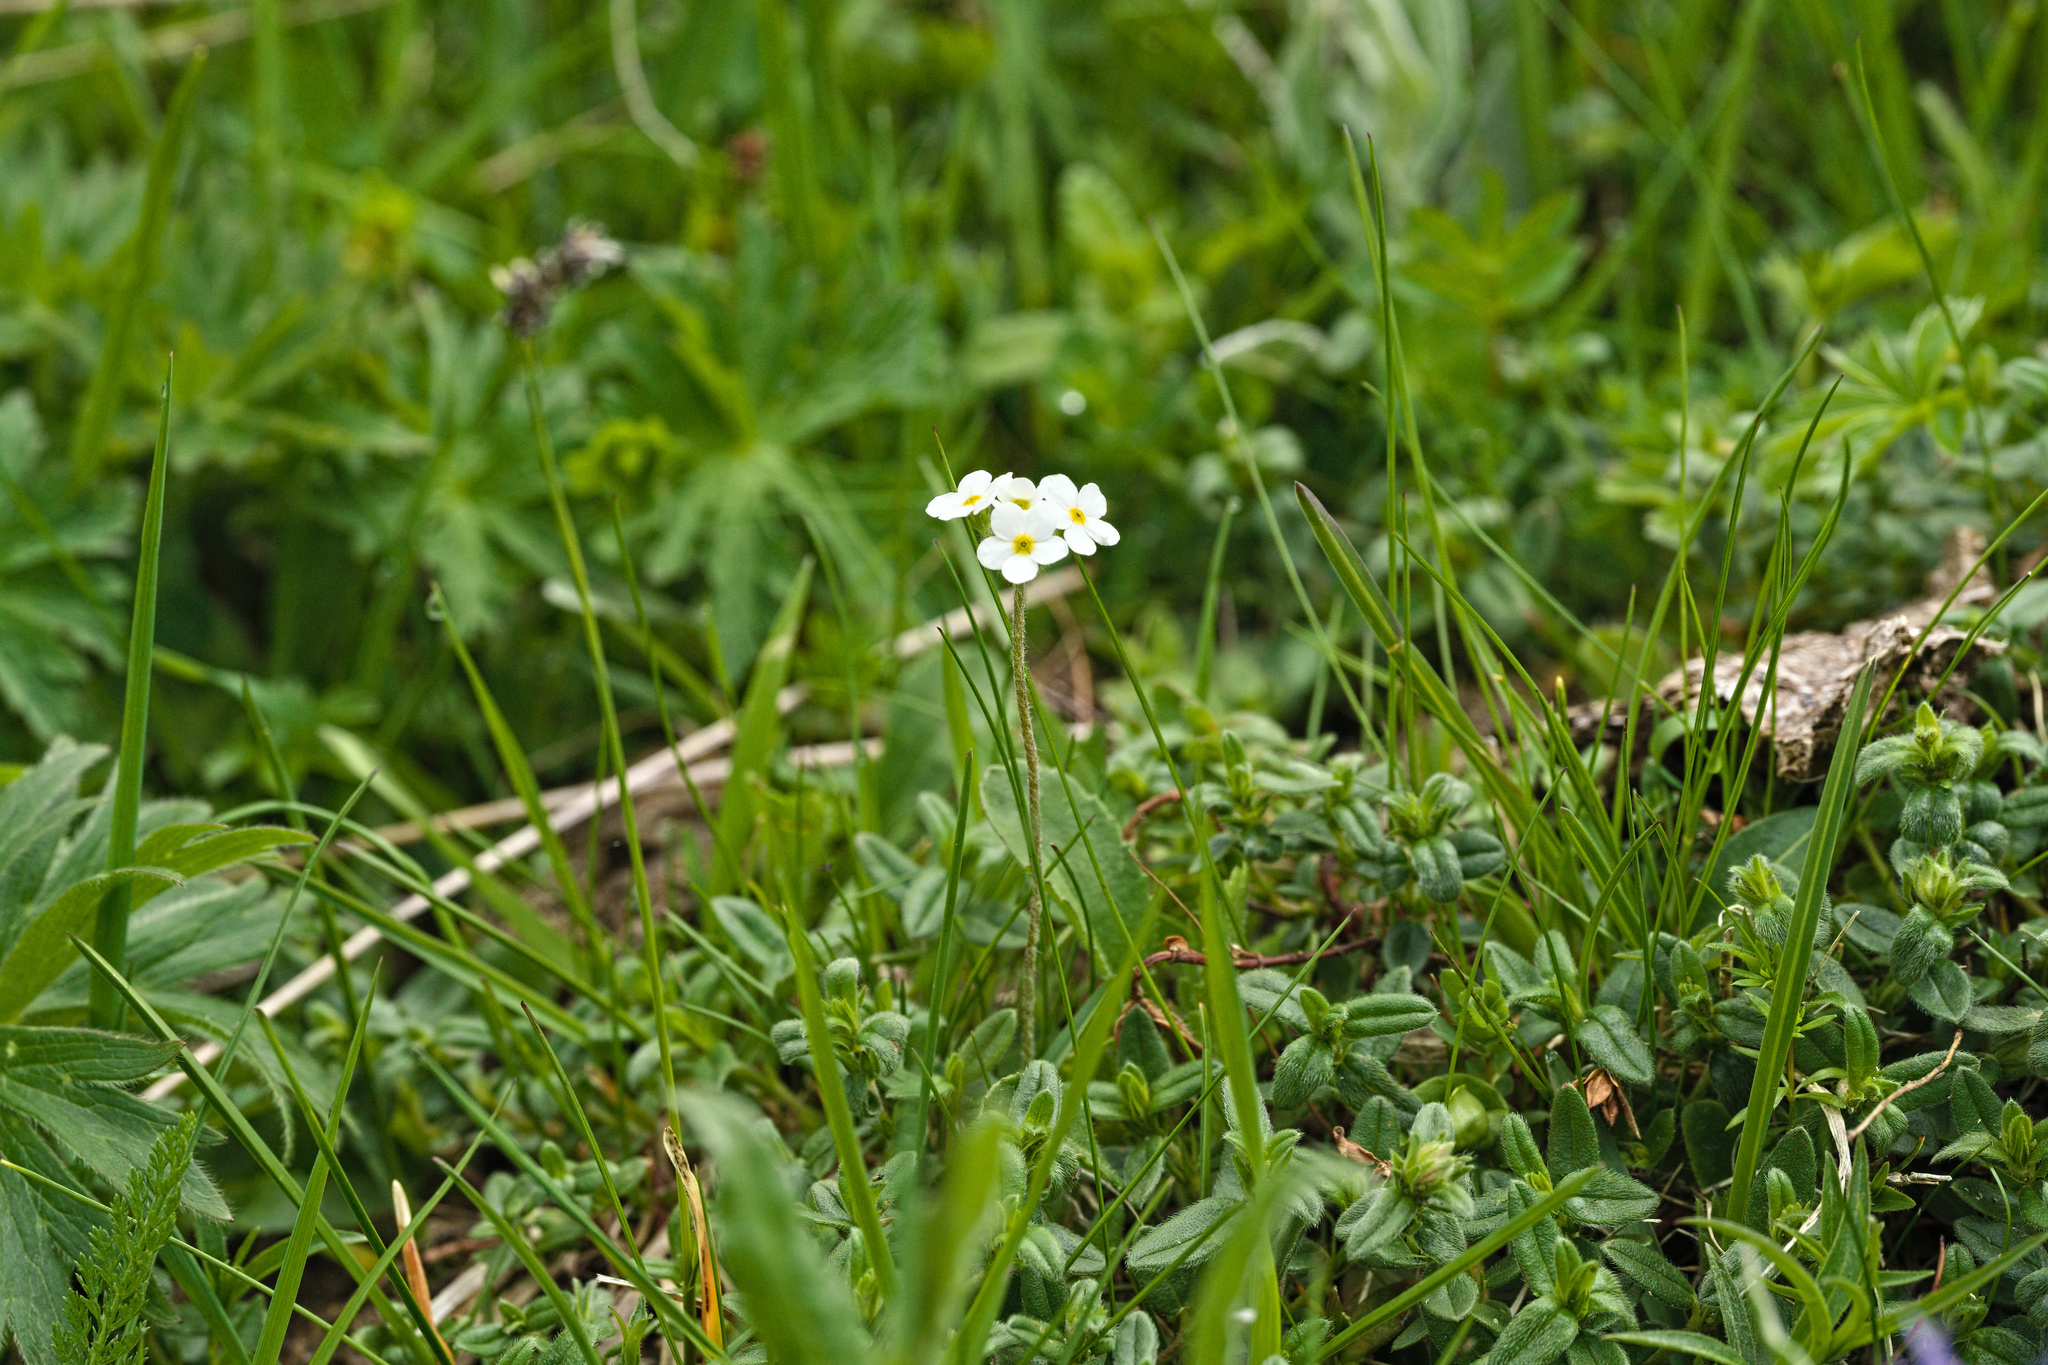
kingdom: Plantae
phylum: Tracheophyta
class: Magnoliopsida
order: Ericales
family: Primulaceae
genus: Androsace
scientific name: Androsace chamaejasme
